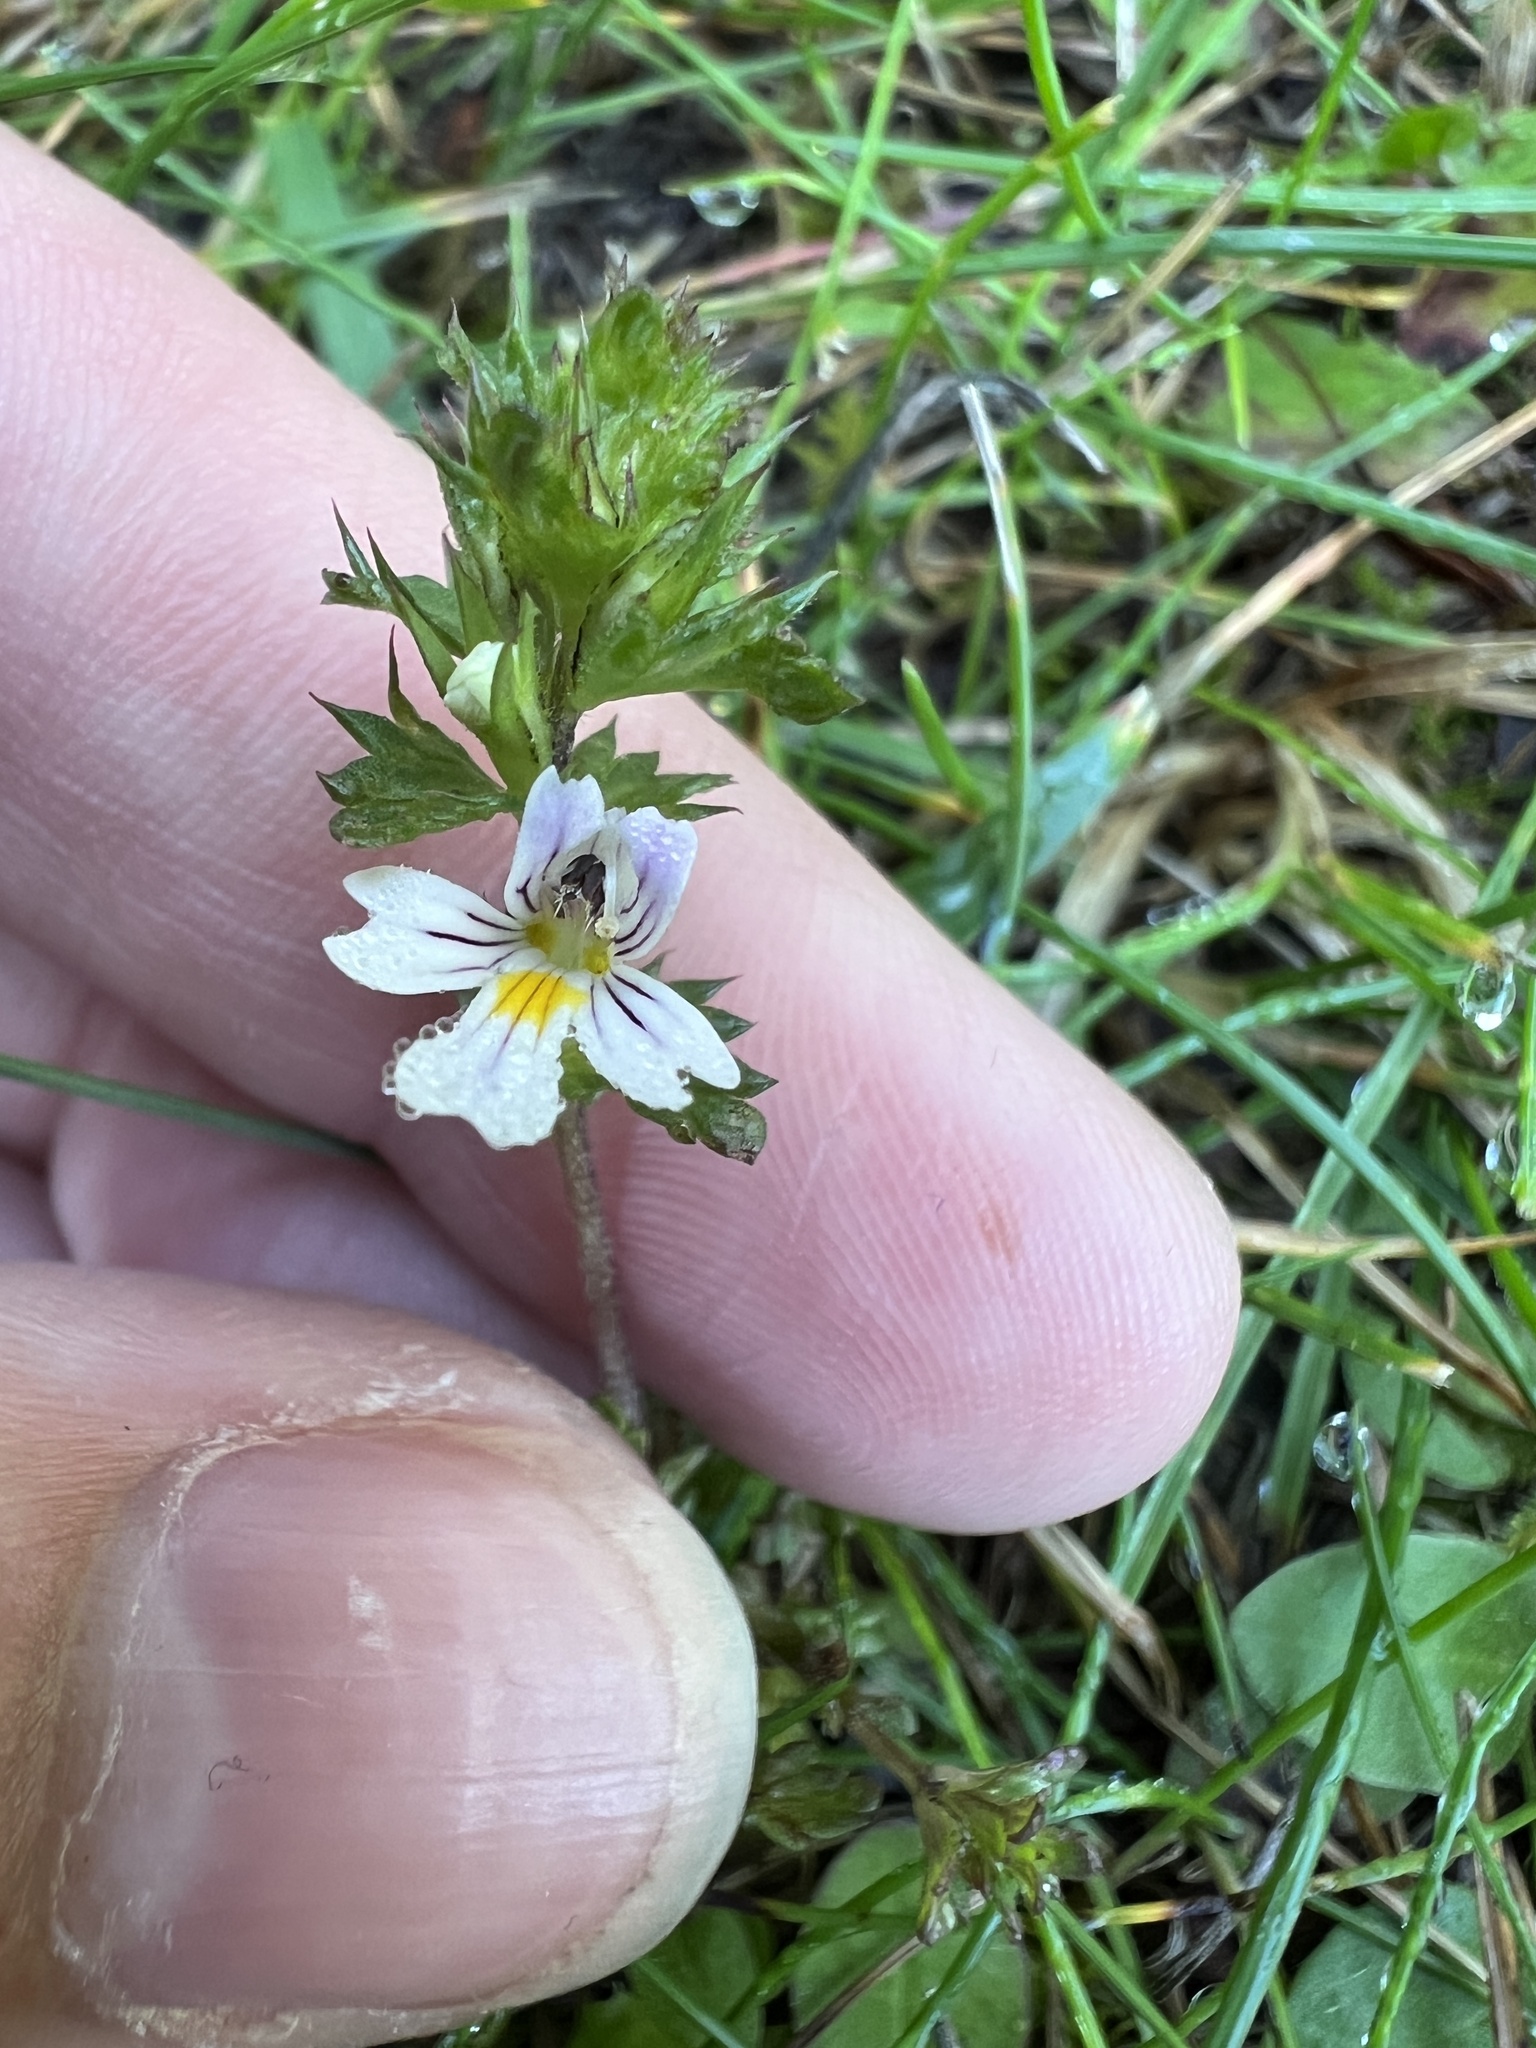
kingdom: Plantae
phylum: Tracheophyta
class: Magnoliopsida
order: Lamiales
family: Orobanchaceae
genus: Euphrasia
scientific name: Euphrasia nemorosa
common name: Common eyebright
